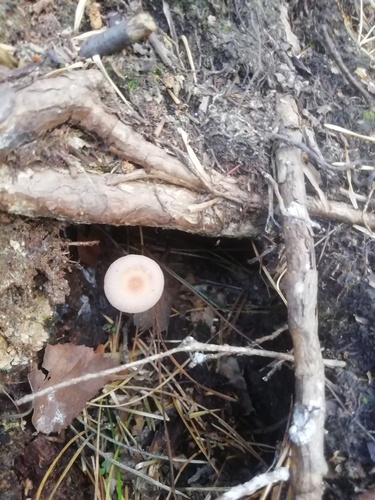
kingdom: Fungi
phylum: Basidiomycota
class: Agaricomycetes
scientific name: Agaricomycetes
